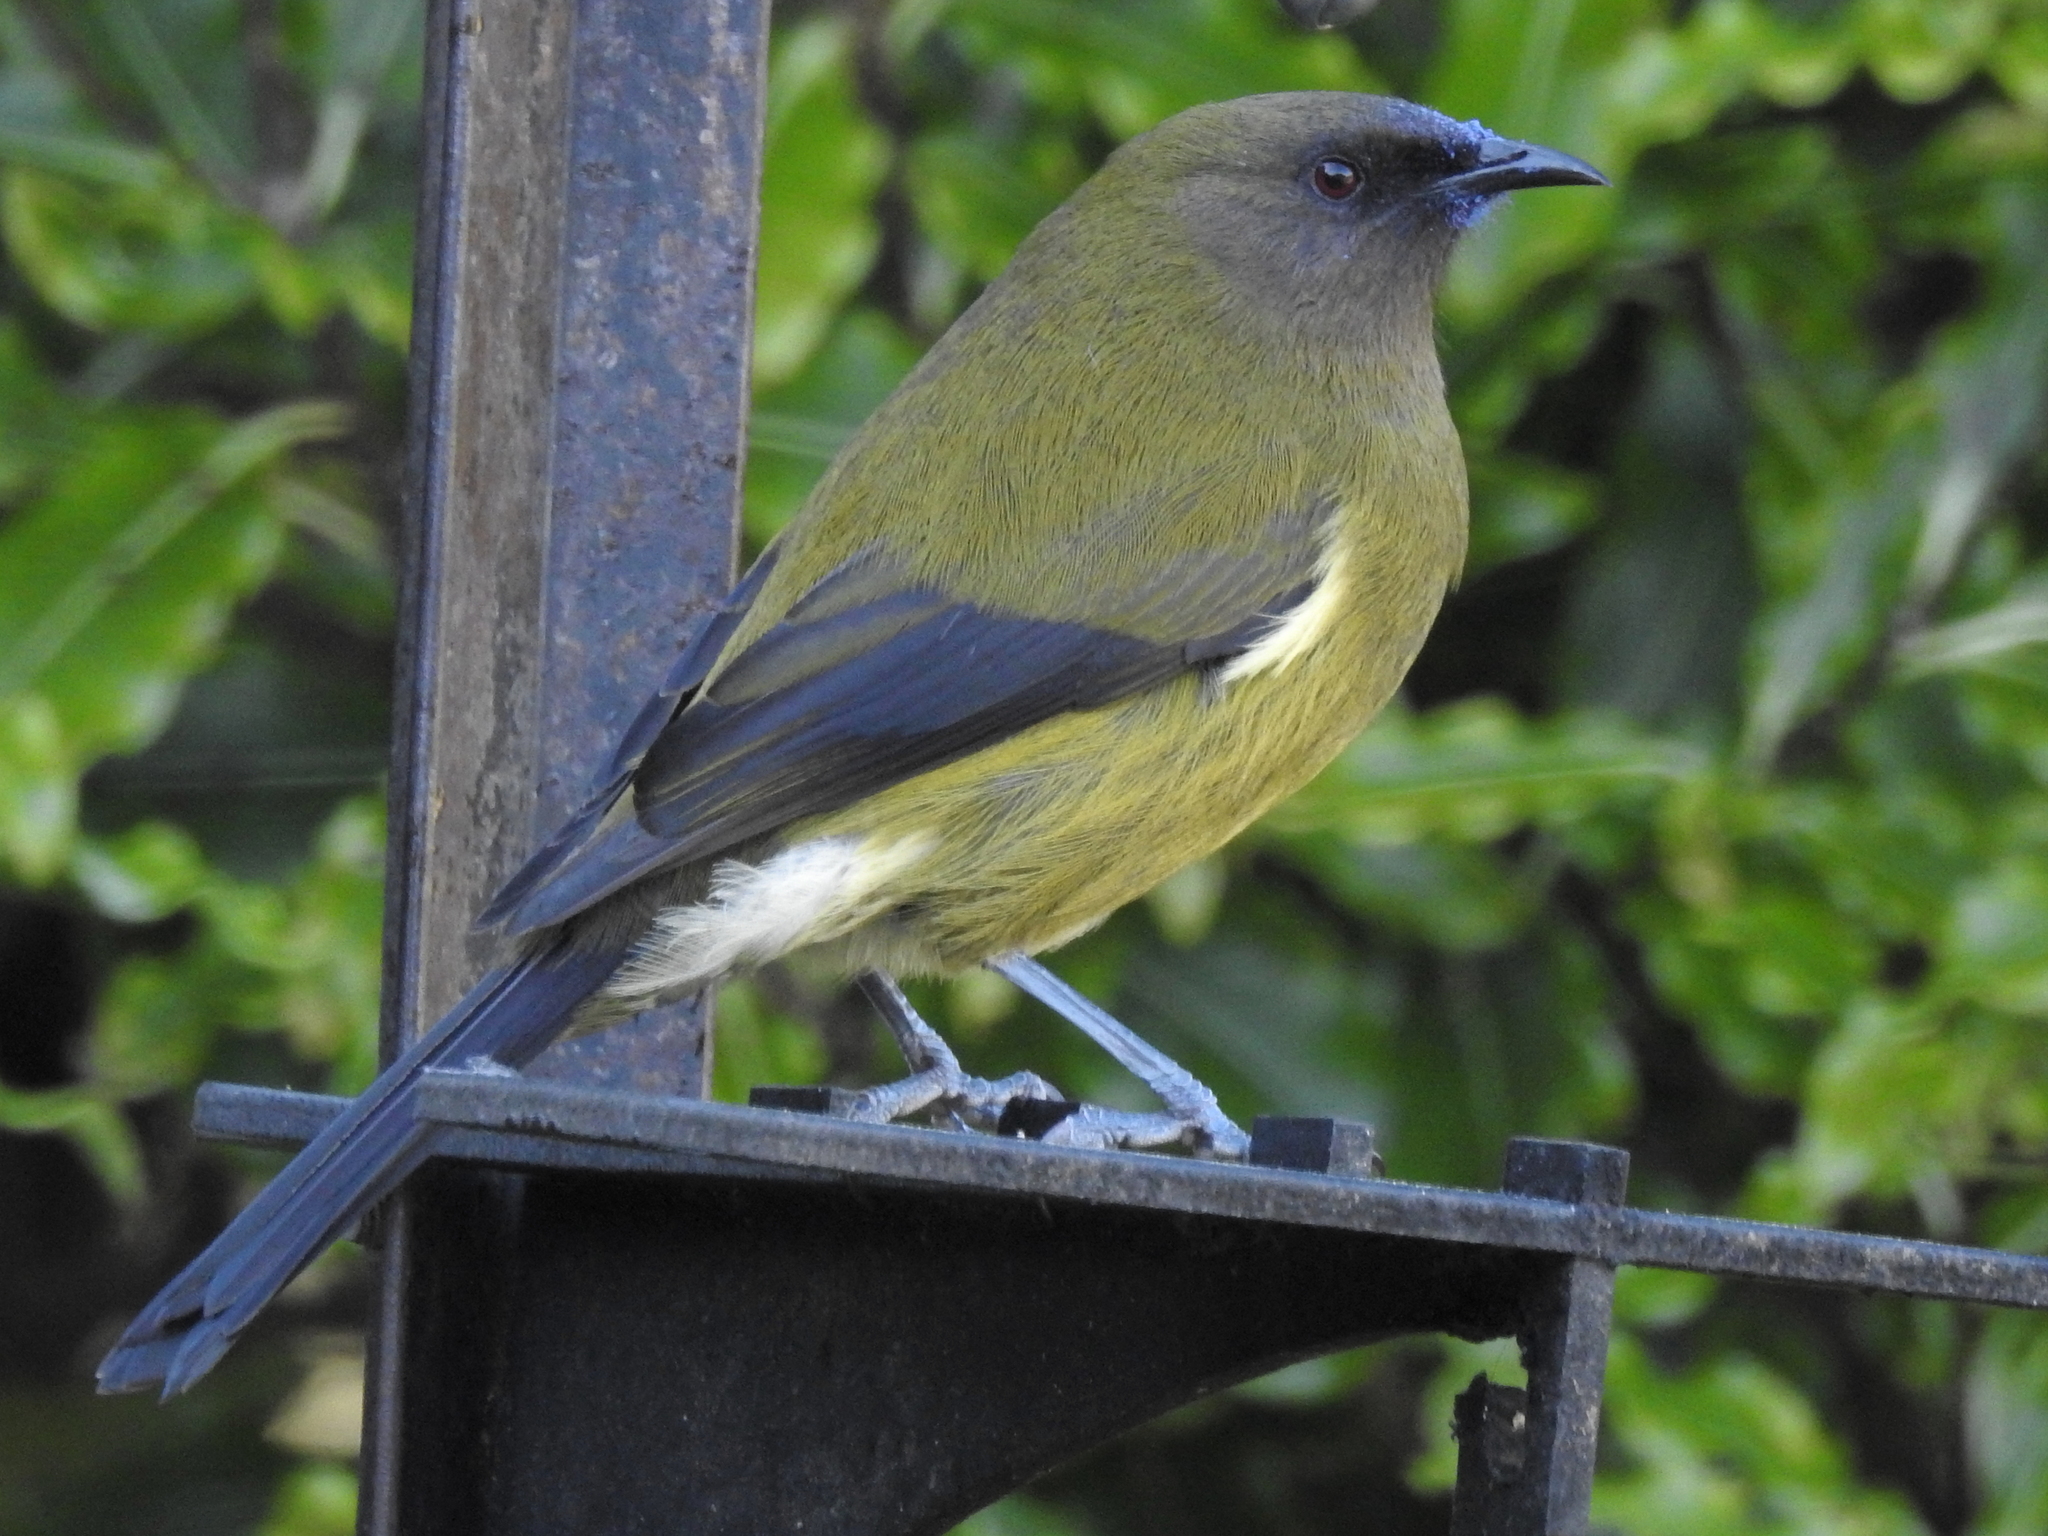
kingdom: Animalia
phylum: Chordata
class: Aves
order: Passeriformes
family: Meliphagidae
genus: Anthornis
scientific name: Anthornis melanura
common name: New zealand bellbird
